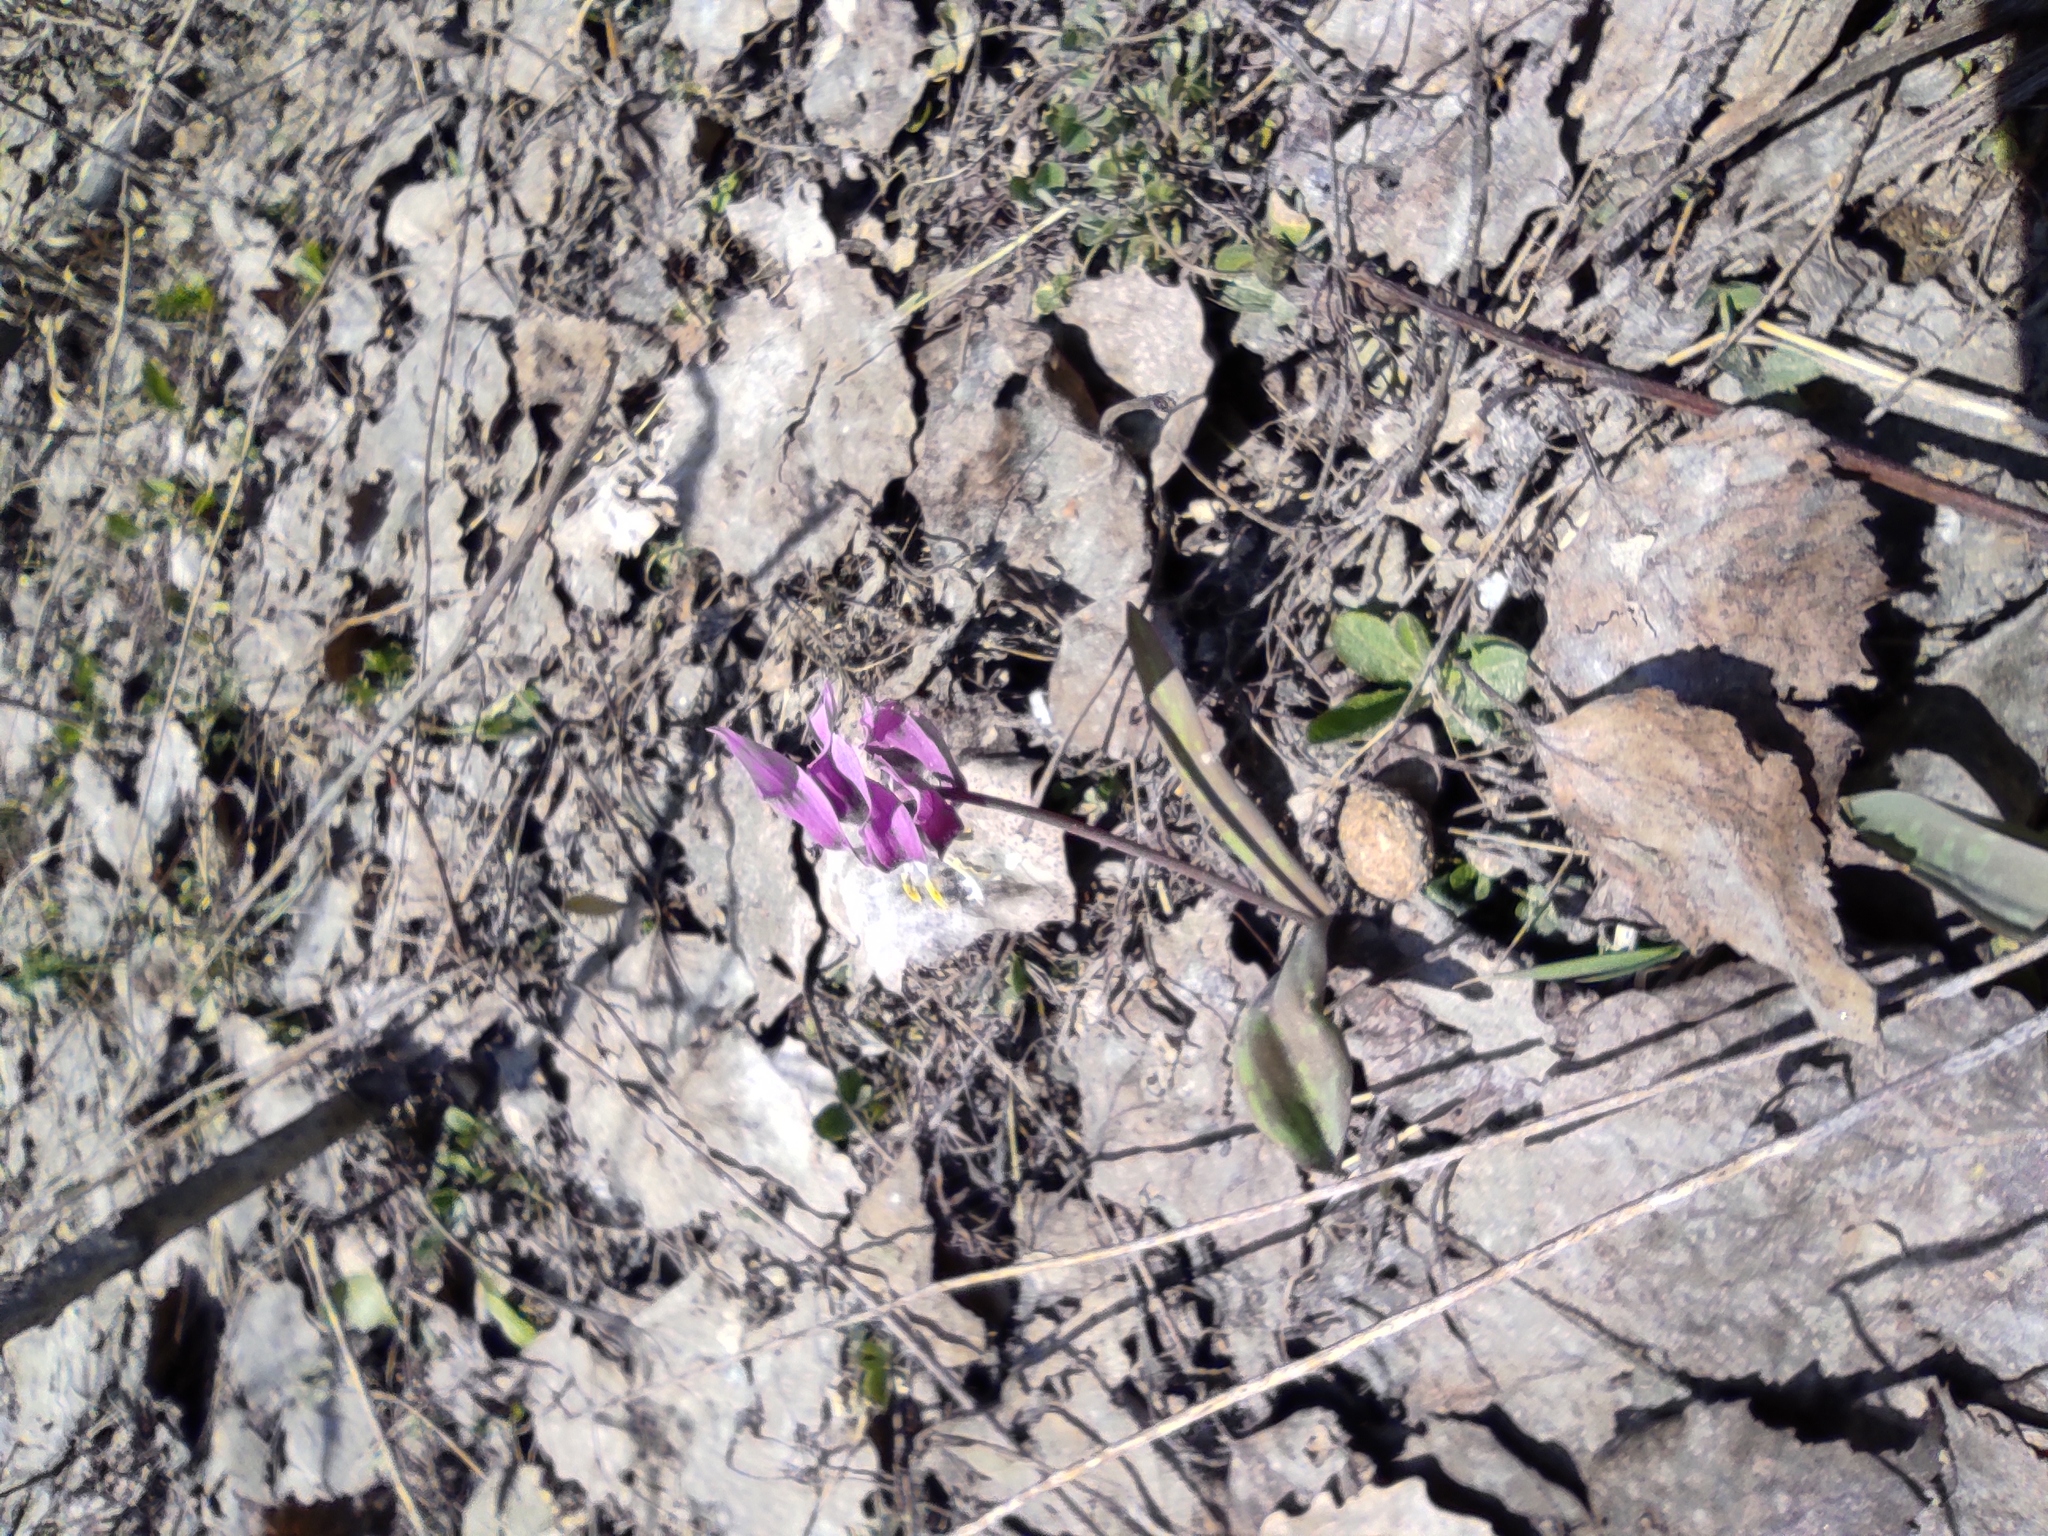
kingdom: Plantae
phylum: Tracheophyta
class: Liliopsida
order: Liliales
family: Liliaceae
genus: Erythronium
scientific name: Erythronium sibiricum
